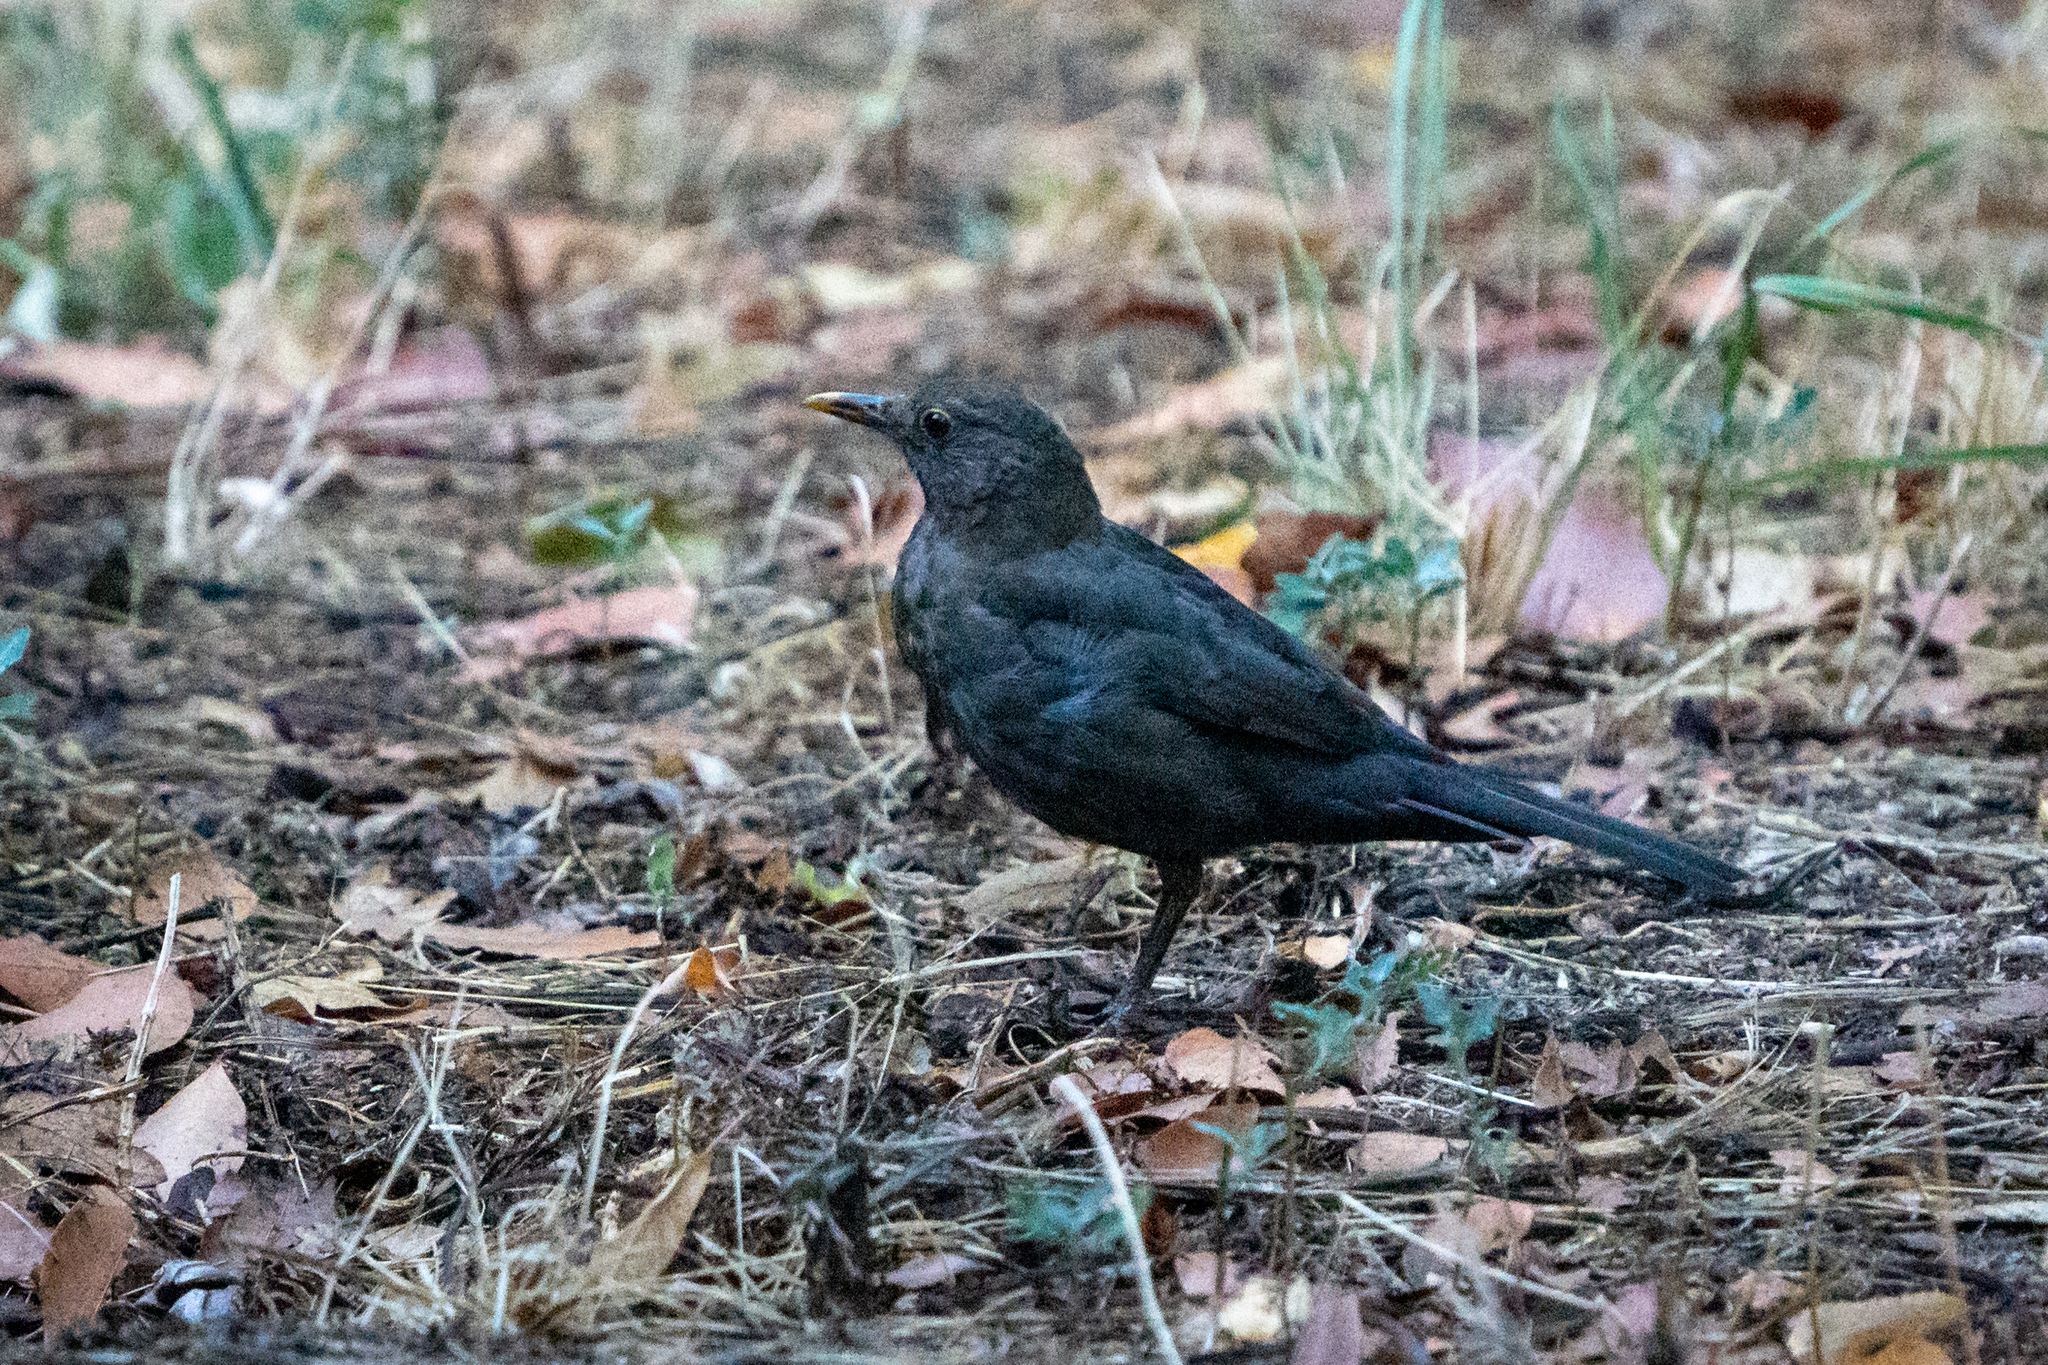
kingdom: Animalia
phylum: Chordata
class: Aves
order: Passeriformes
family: Turdidae
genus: Turdus
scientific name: Turdus merula
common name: Common blackbird
